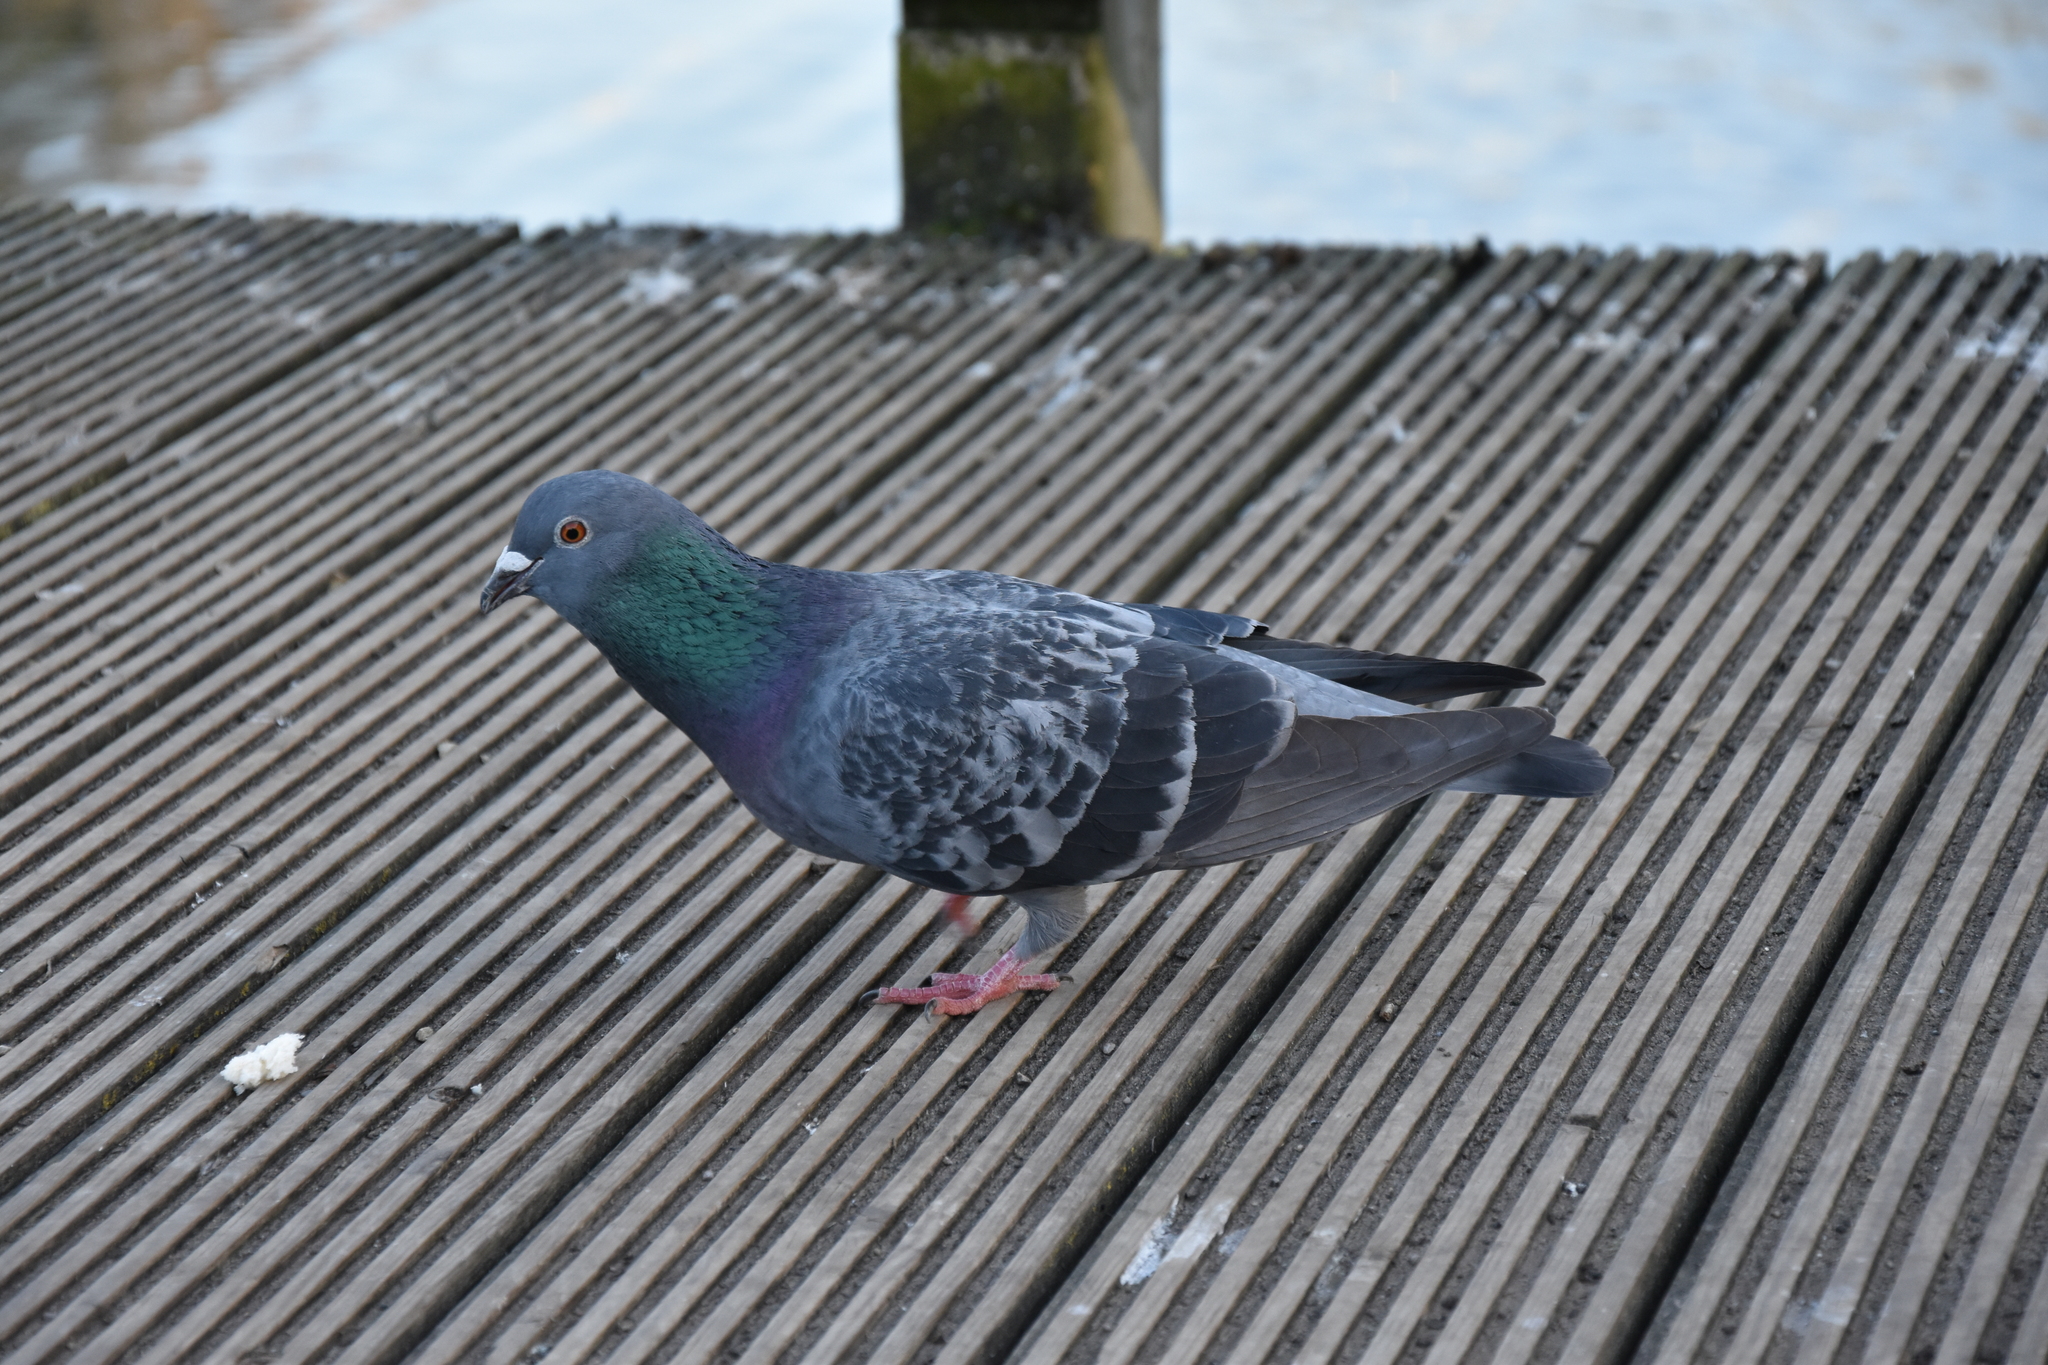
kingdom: Animalia
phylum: Chordata
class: Aves
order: Columbiformes
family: Columbidae
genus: Columba
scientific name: Columba livia
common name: Rock pigeon
